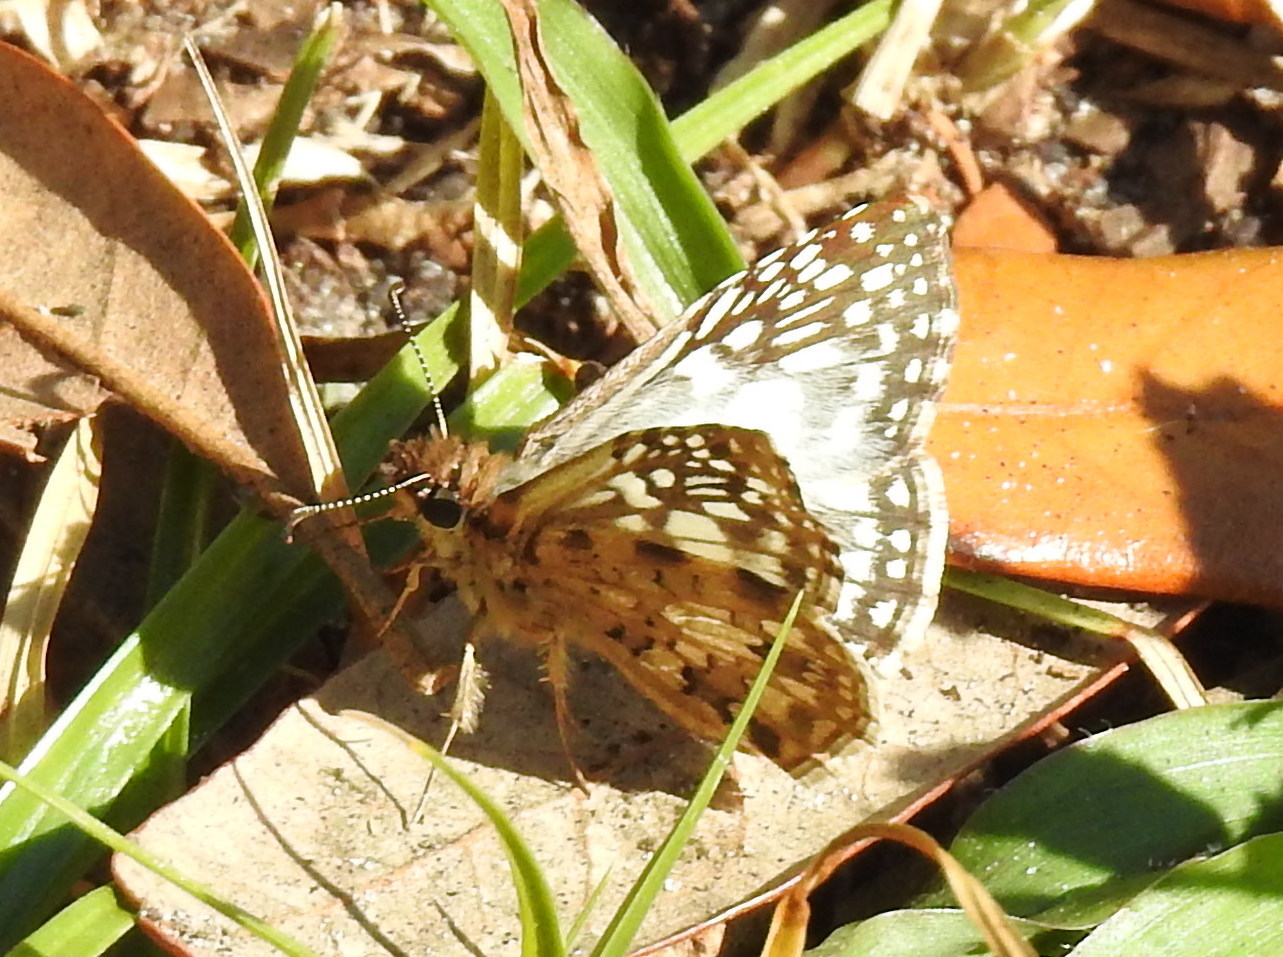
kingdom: Animalia
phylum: Arthropoda
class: Insecta
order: Lepidoptera
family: Hesperiidae
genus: Pyrgus
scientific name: Pyrgus oileus
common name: Tropical checkered-skipper
